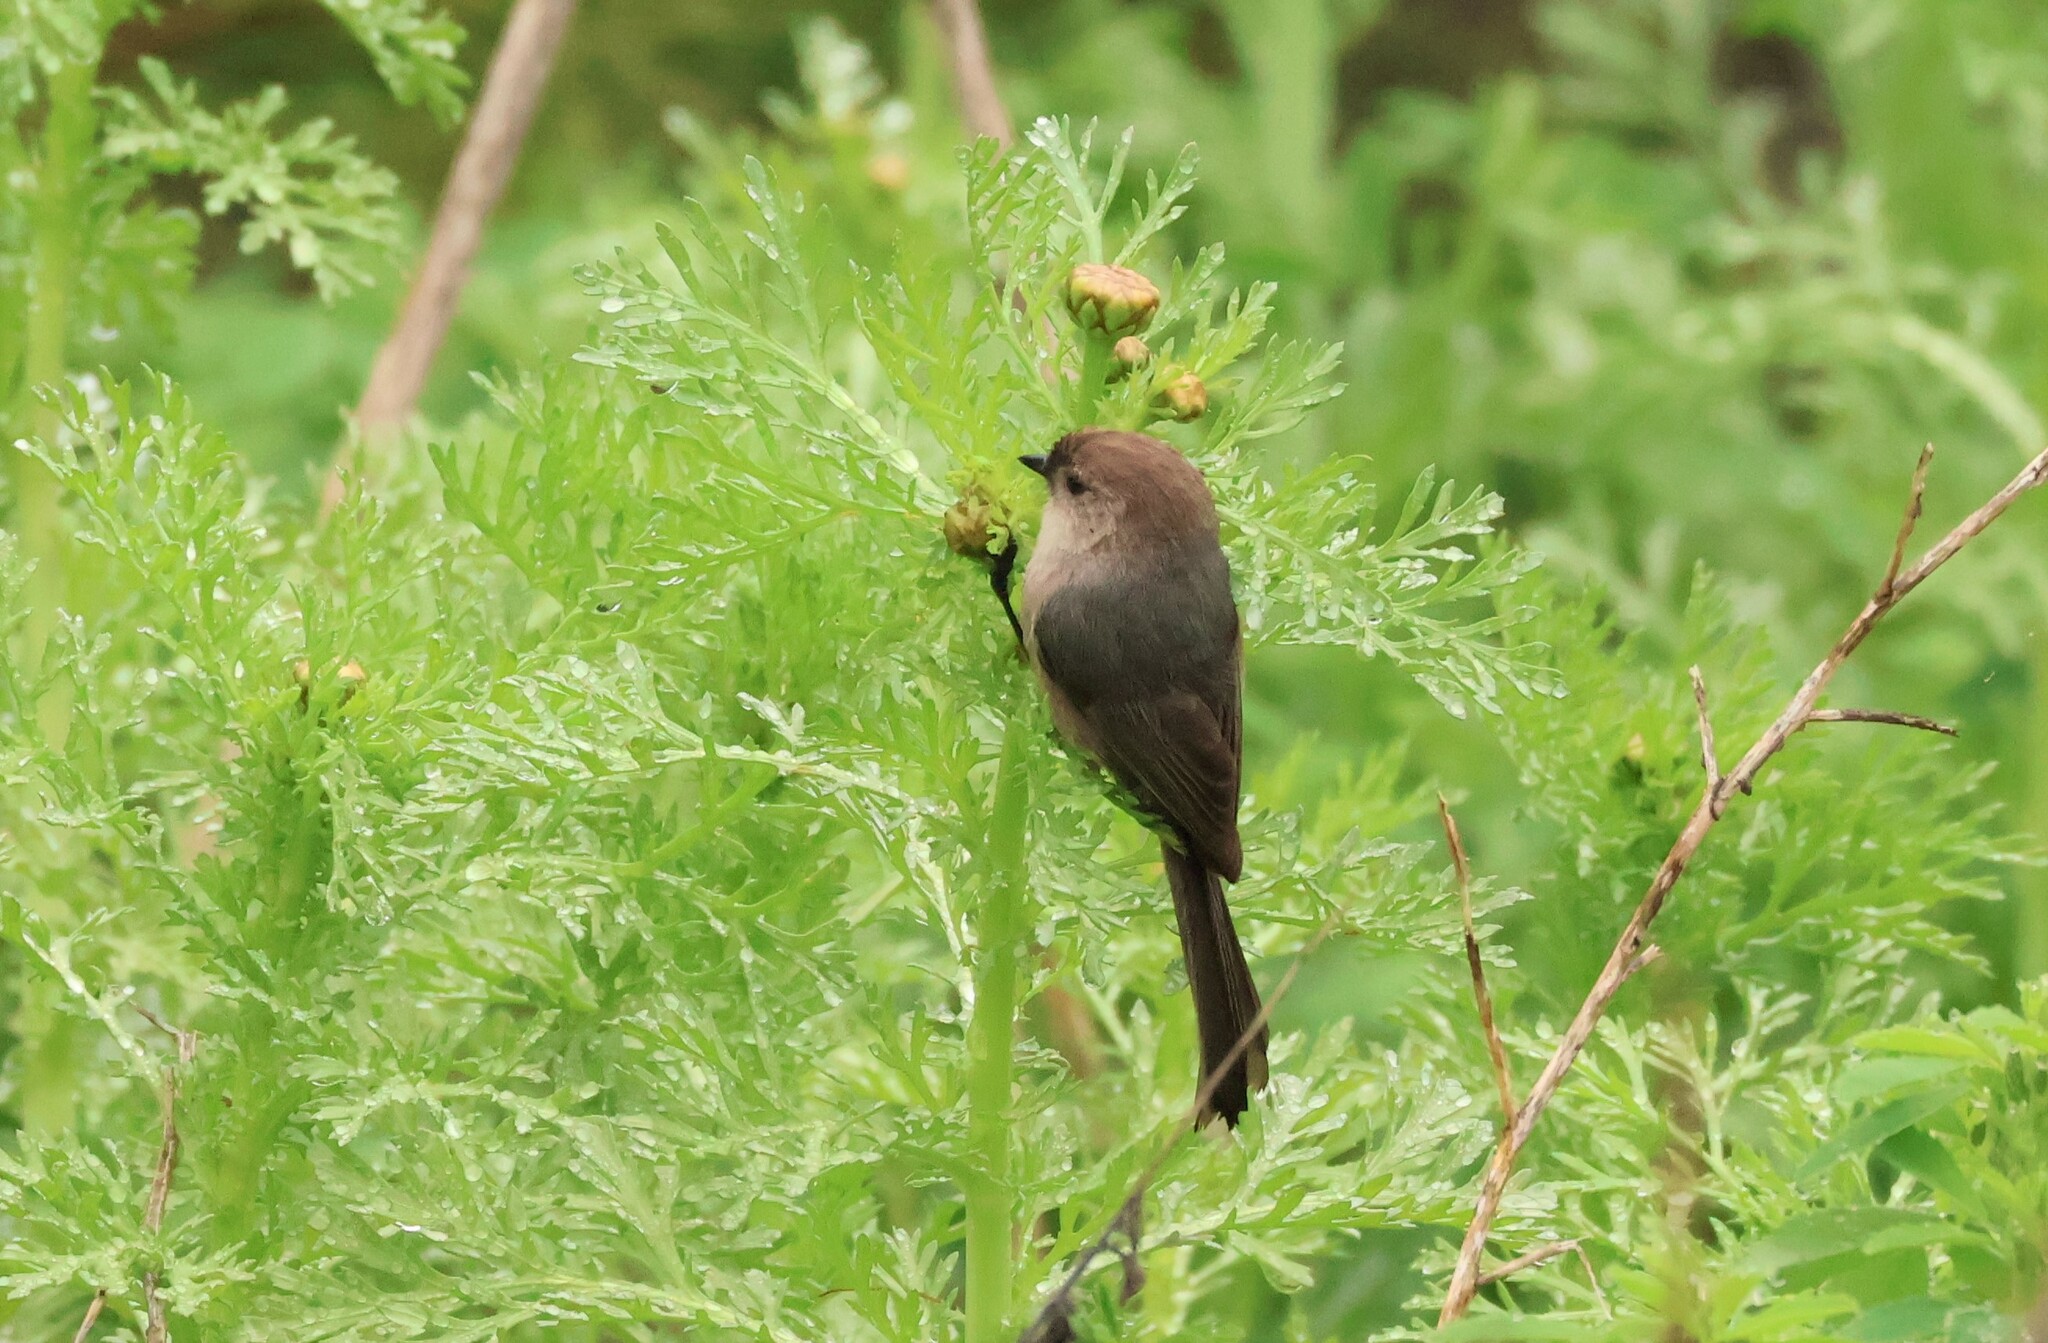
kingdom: Animalia
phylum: Chordata
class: Aves
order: Passeriformes
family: Aegithalidae
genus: Psaltriparus
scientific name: Psaltriparus minimus
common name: American bushtit
